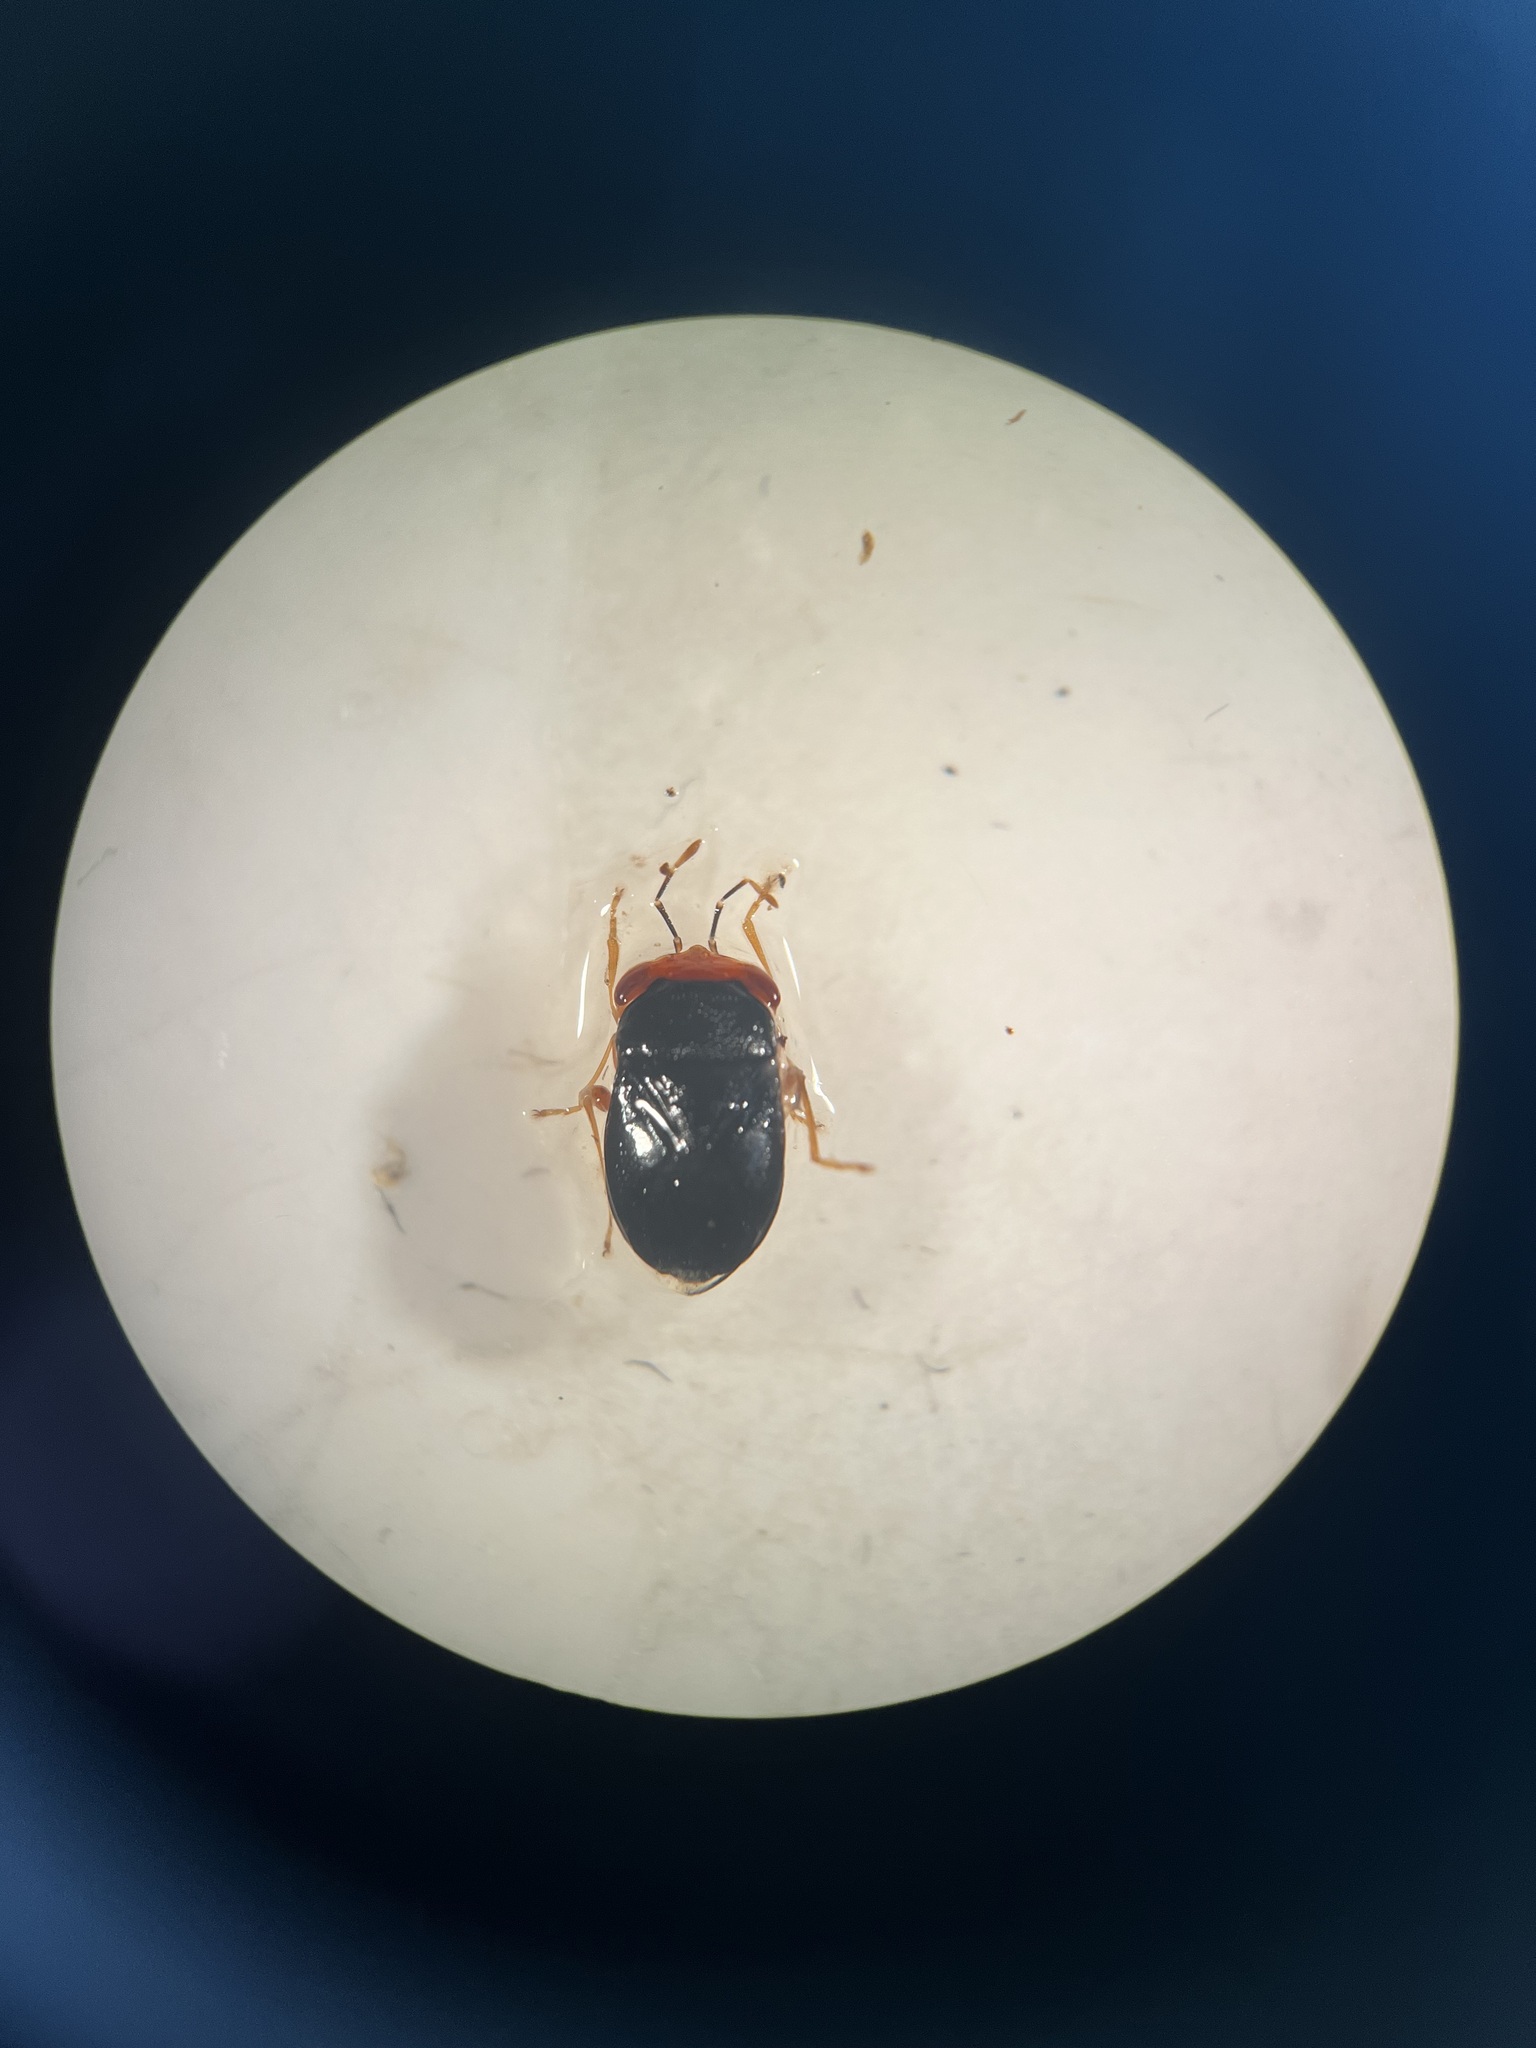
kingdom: Animalia
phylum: Arthropoda
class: Insecta
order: Hemiptera
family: Geocoridae
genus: Geocoris
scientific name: Geocoris erythrocephala
